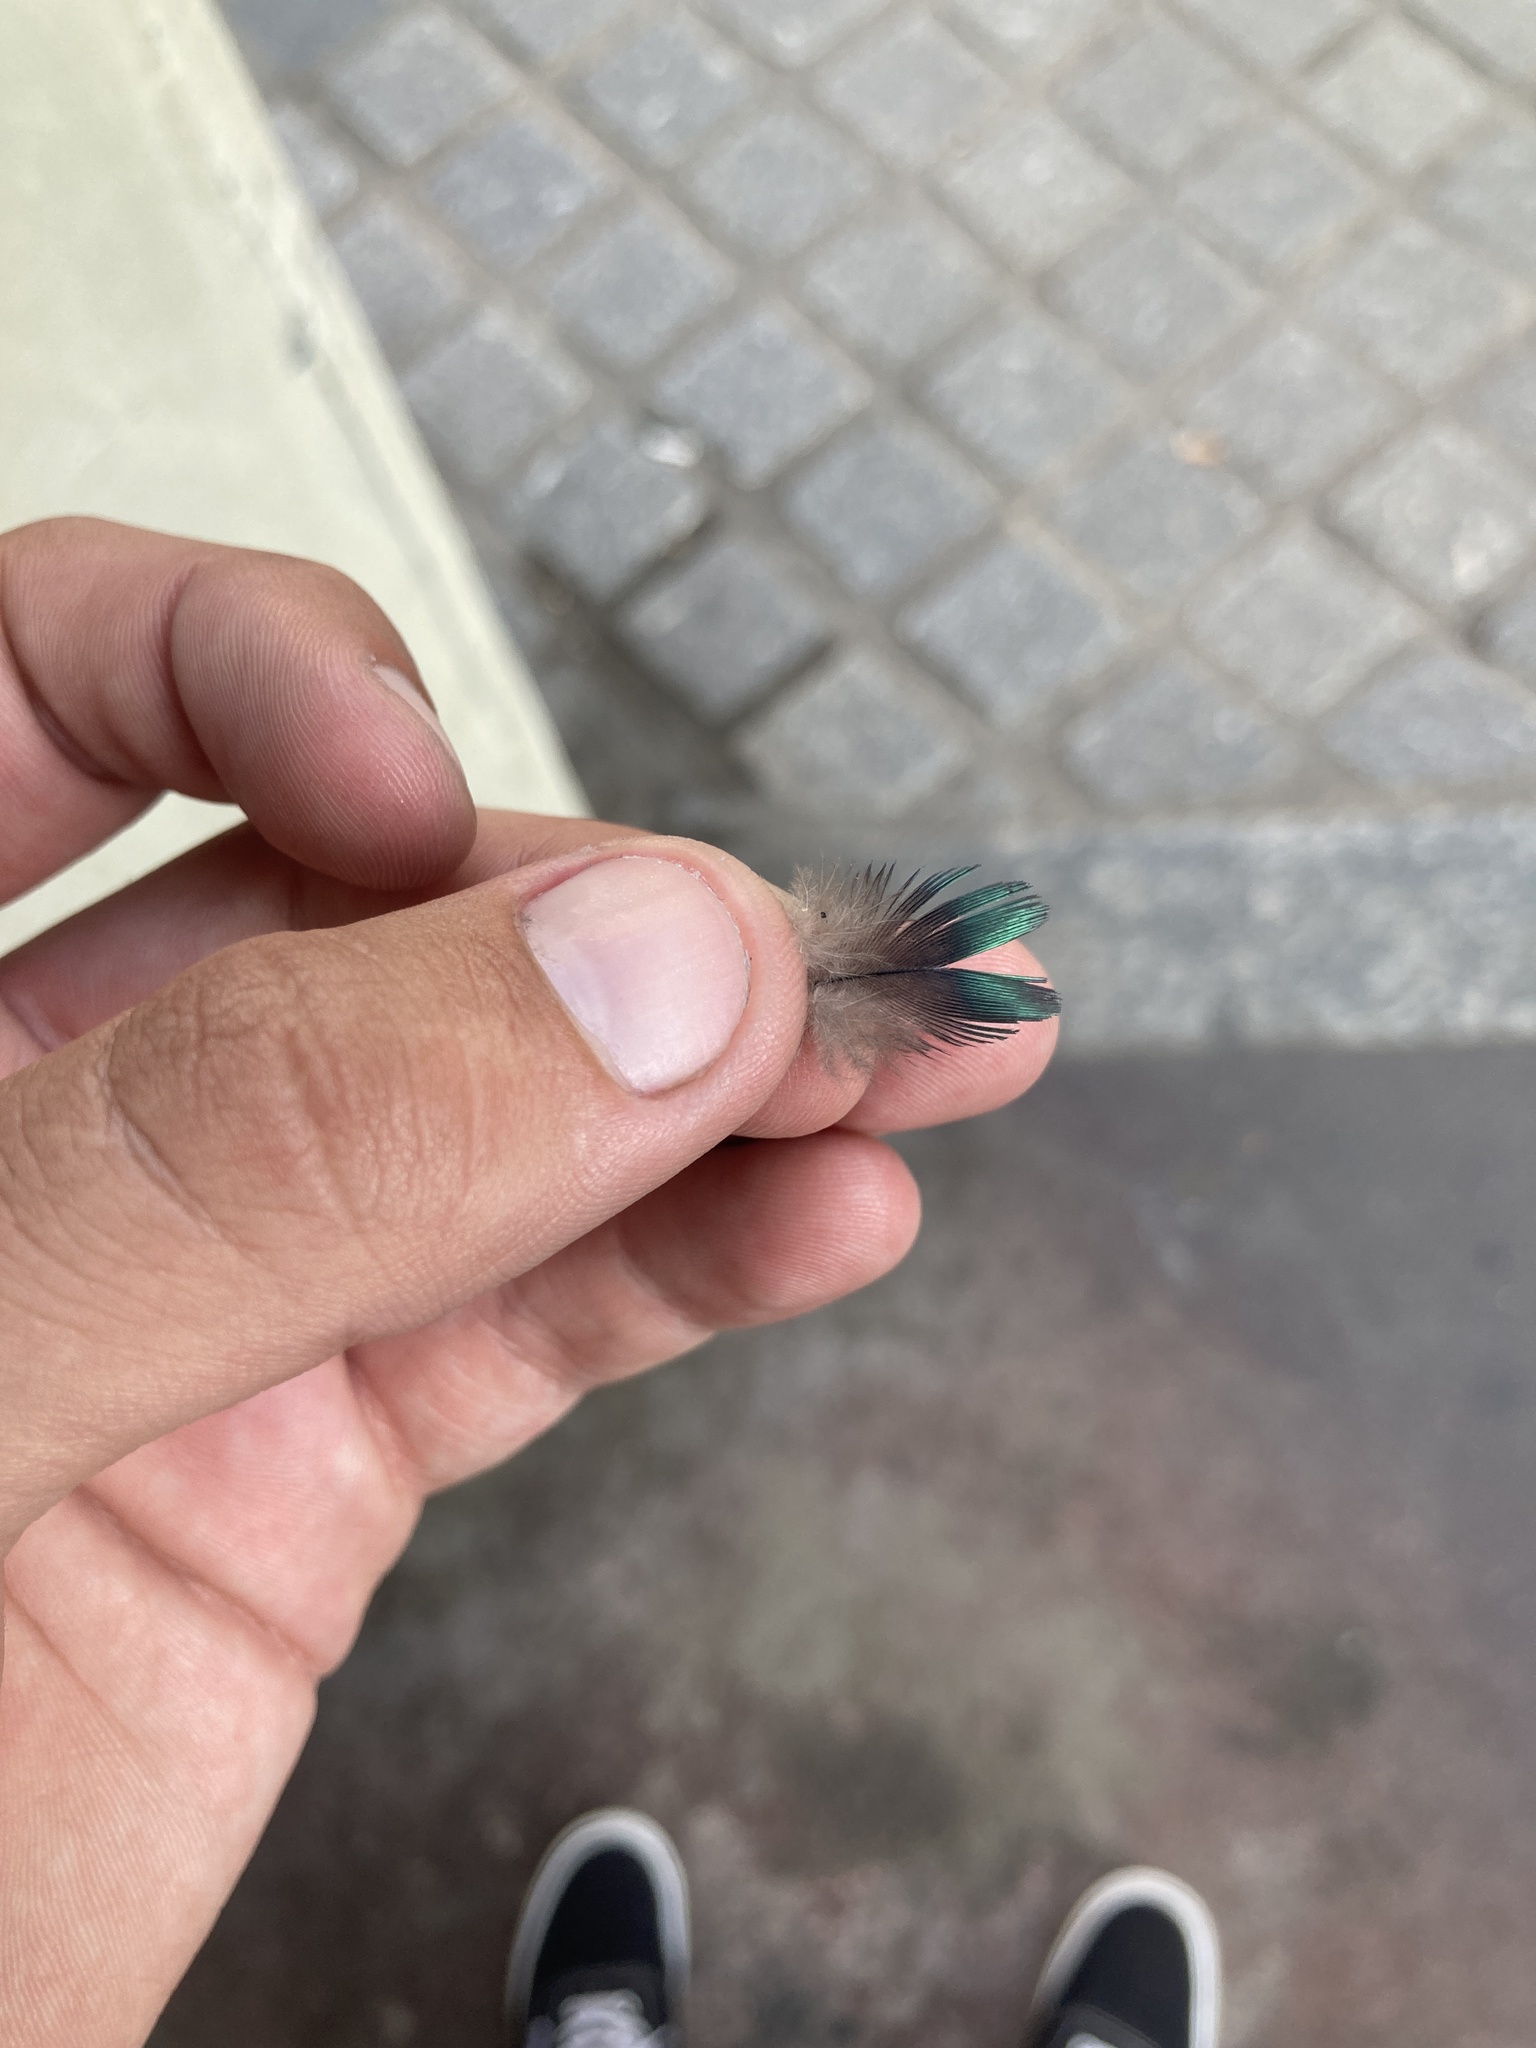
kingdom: Animalia
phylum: Chordata
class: Aves
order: Columbiformes
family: Columbidae
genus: Columba
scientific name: Columba palumbus
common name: Common wood pigeon
